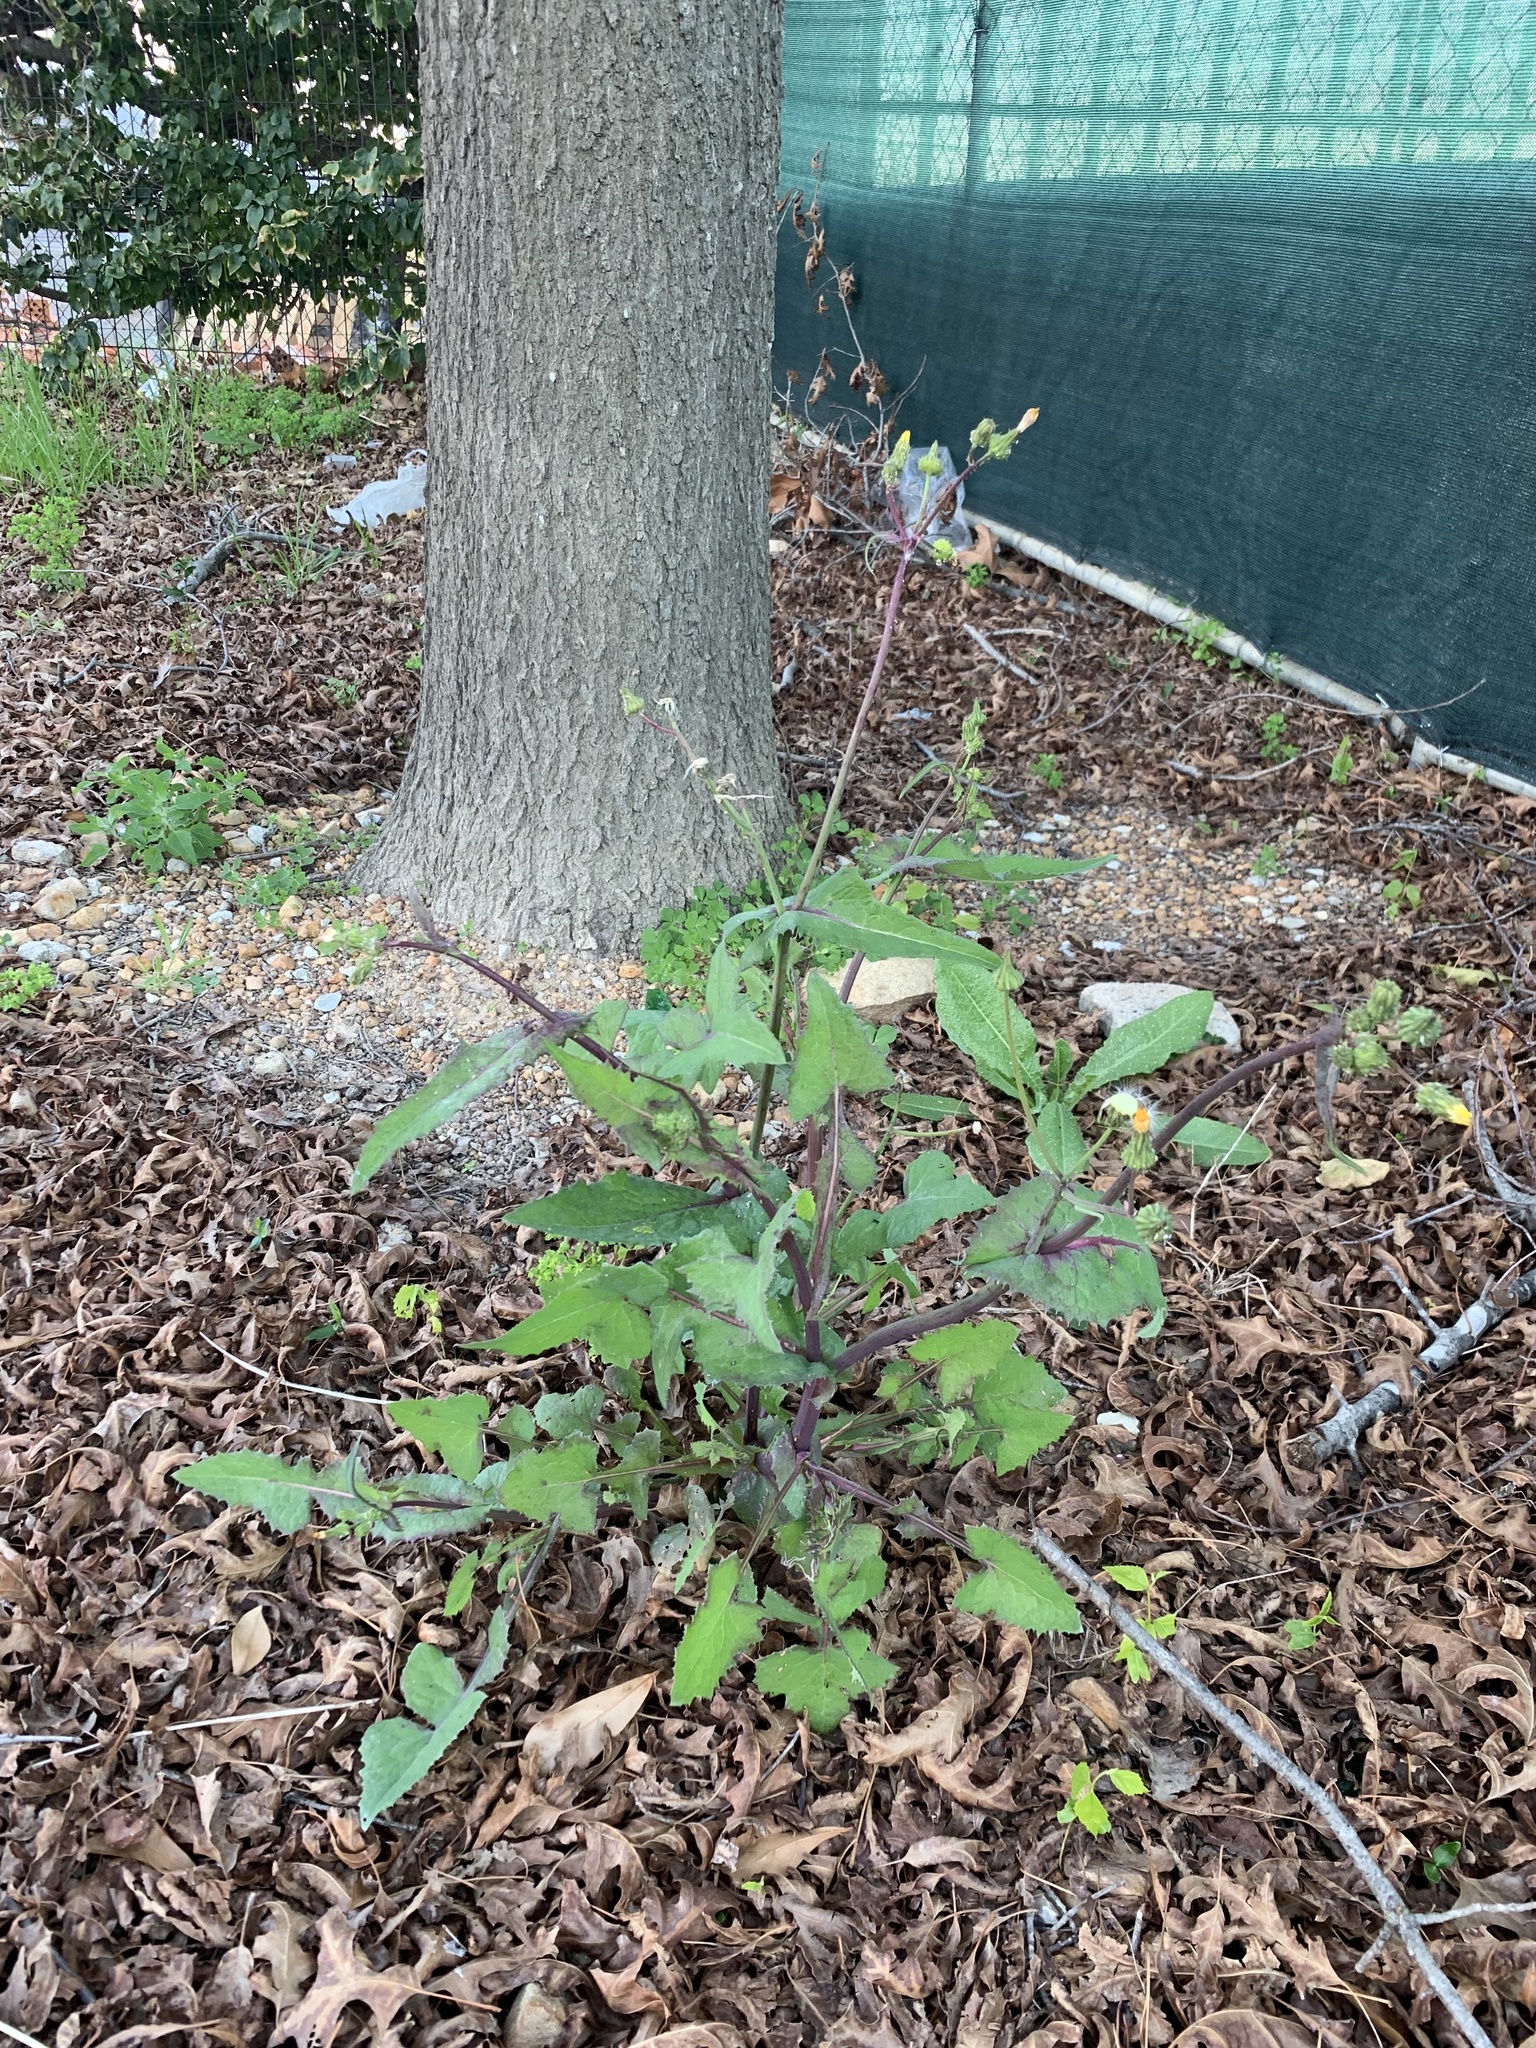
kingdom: Plantae
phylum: Tracheophyta
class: Magnoliopsida
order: Asterales
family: Asteraceae
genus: Sonchus
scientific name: Sonchus oleraceus
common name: Common sowthistle
